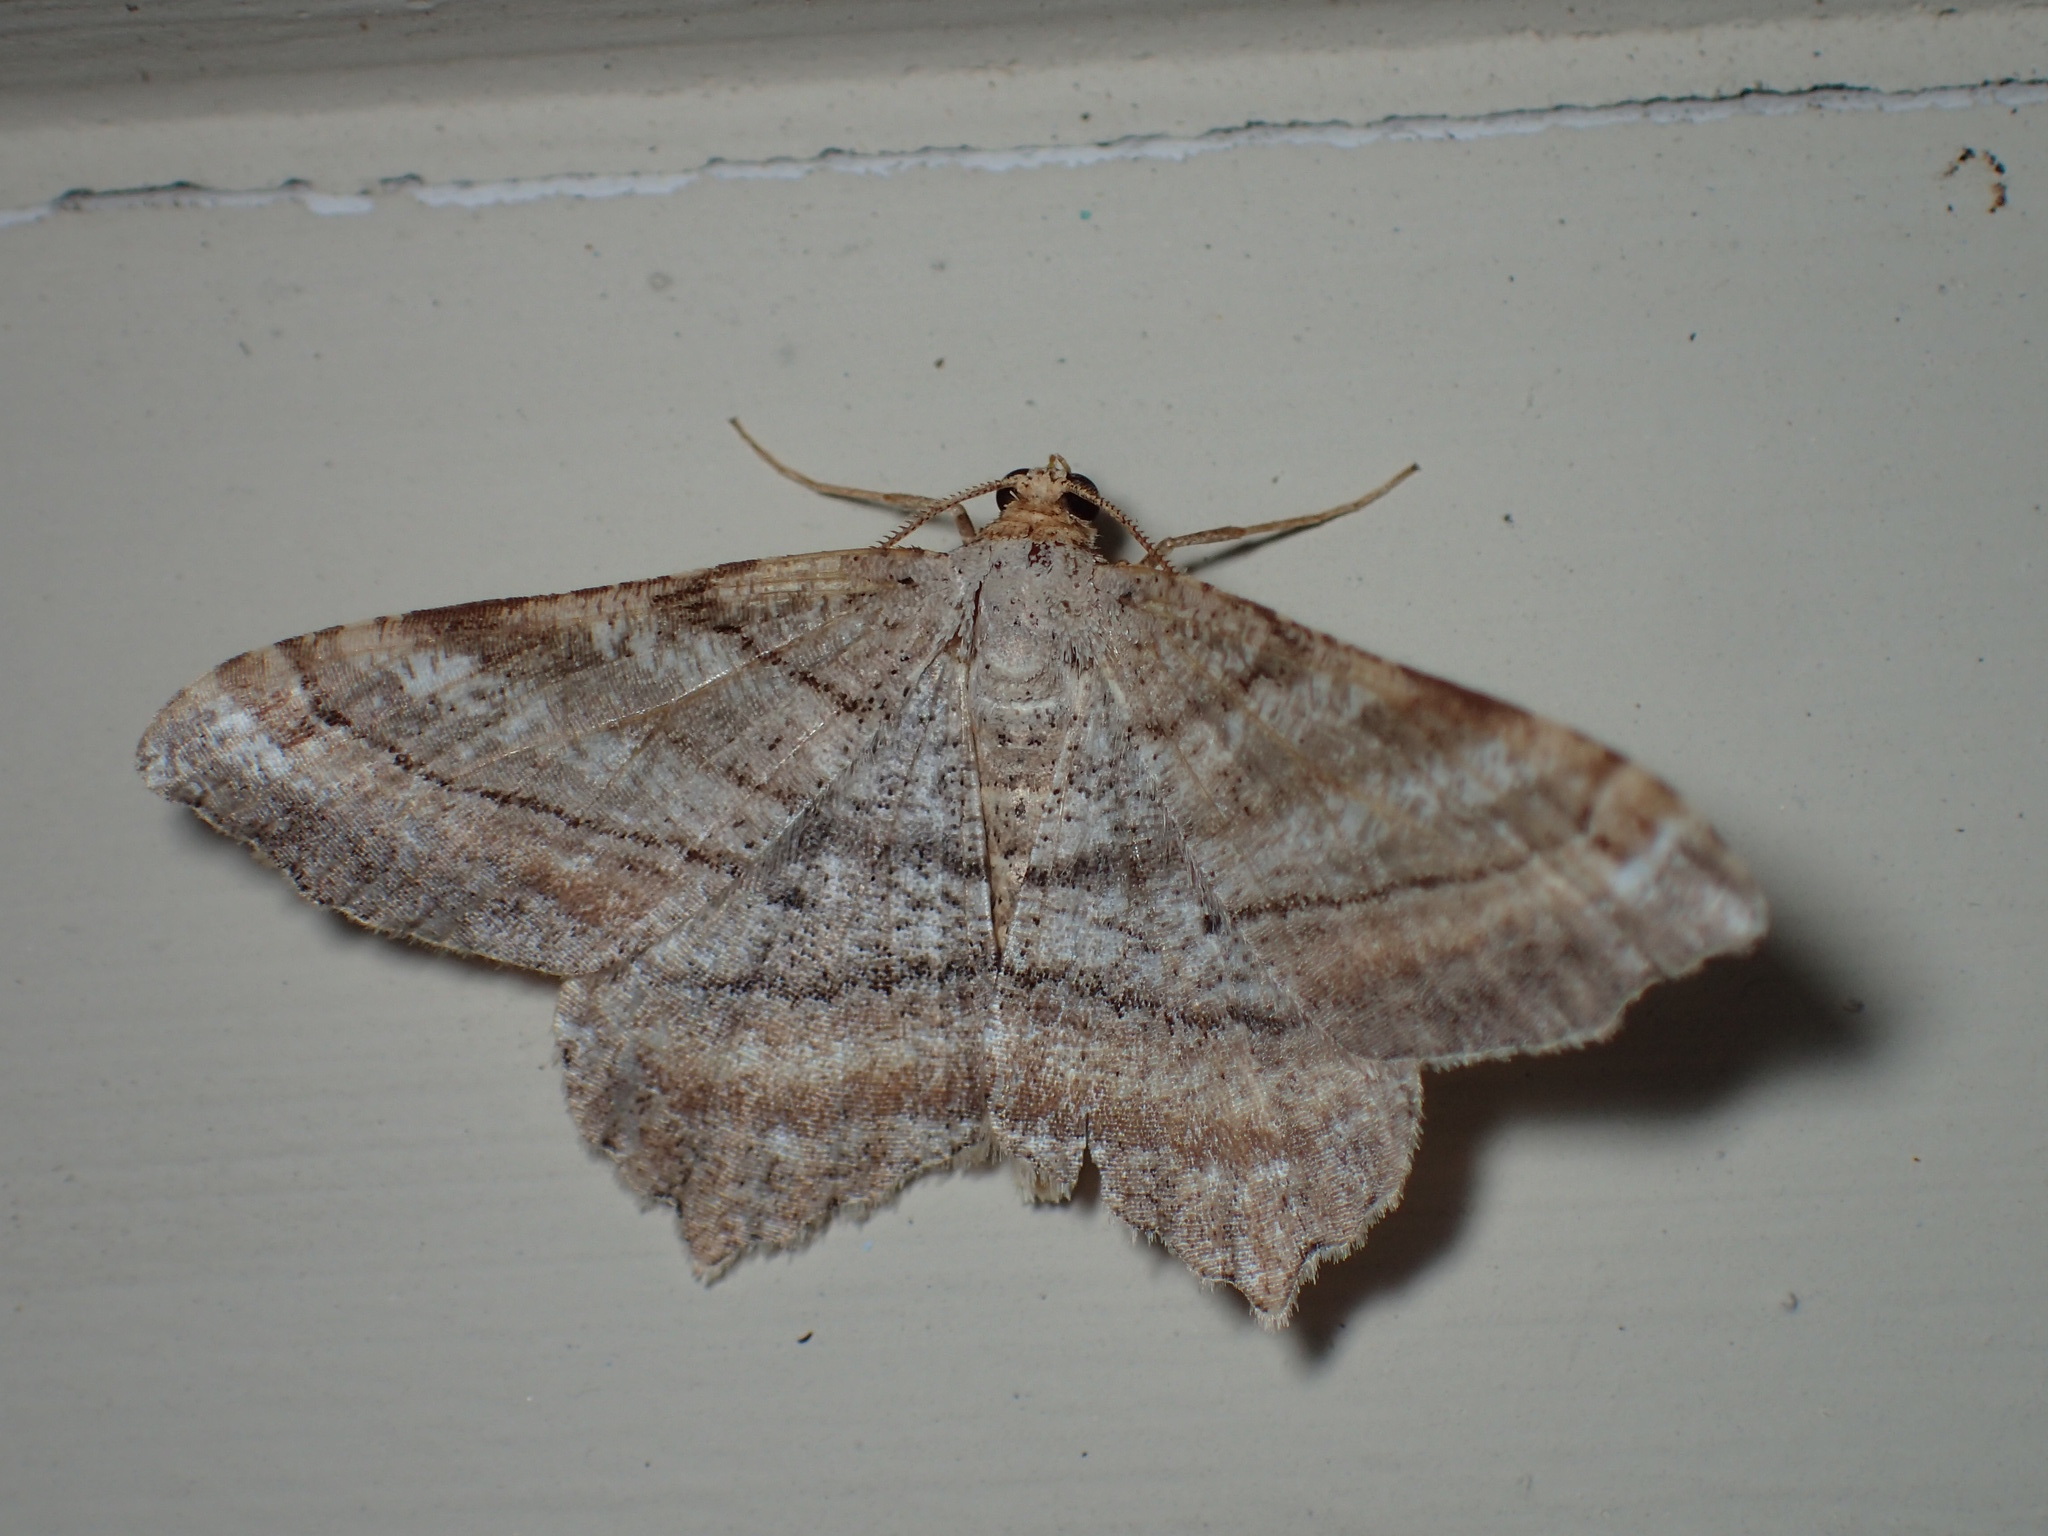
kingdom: Animalia
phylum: Arthropoda
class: Insecta
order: Lepidoptera
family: Geometridae
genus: Macaria
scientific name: Macaria multilineata
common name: Many-lined angle
